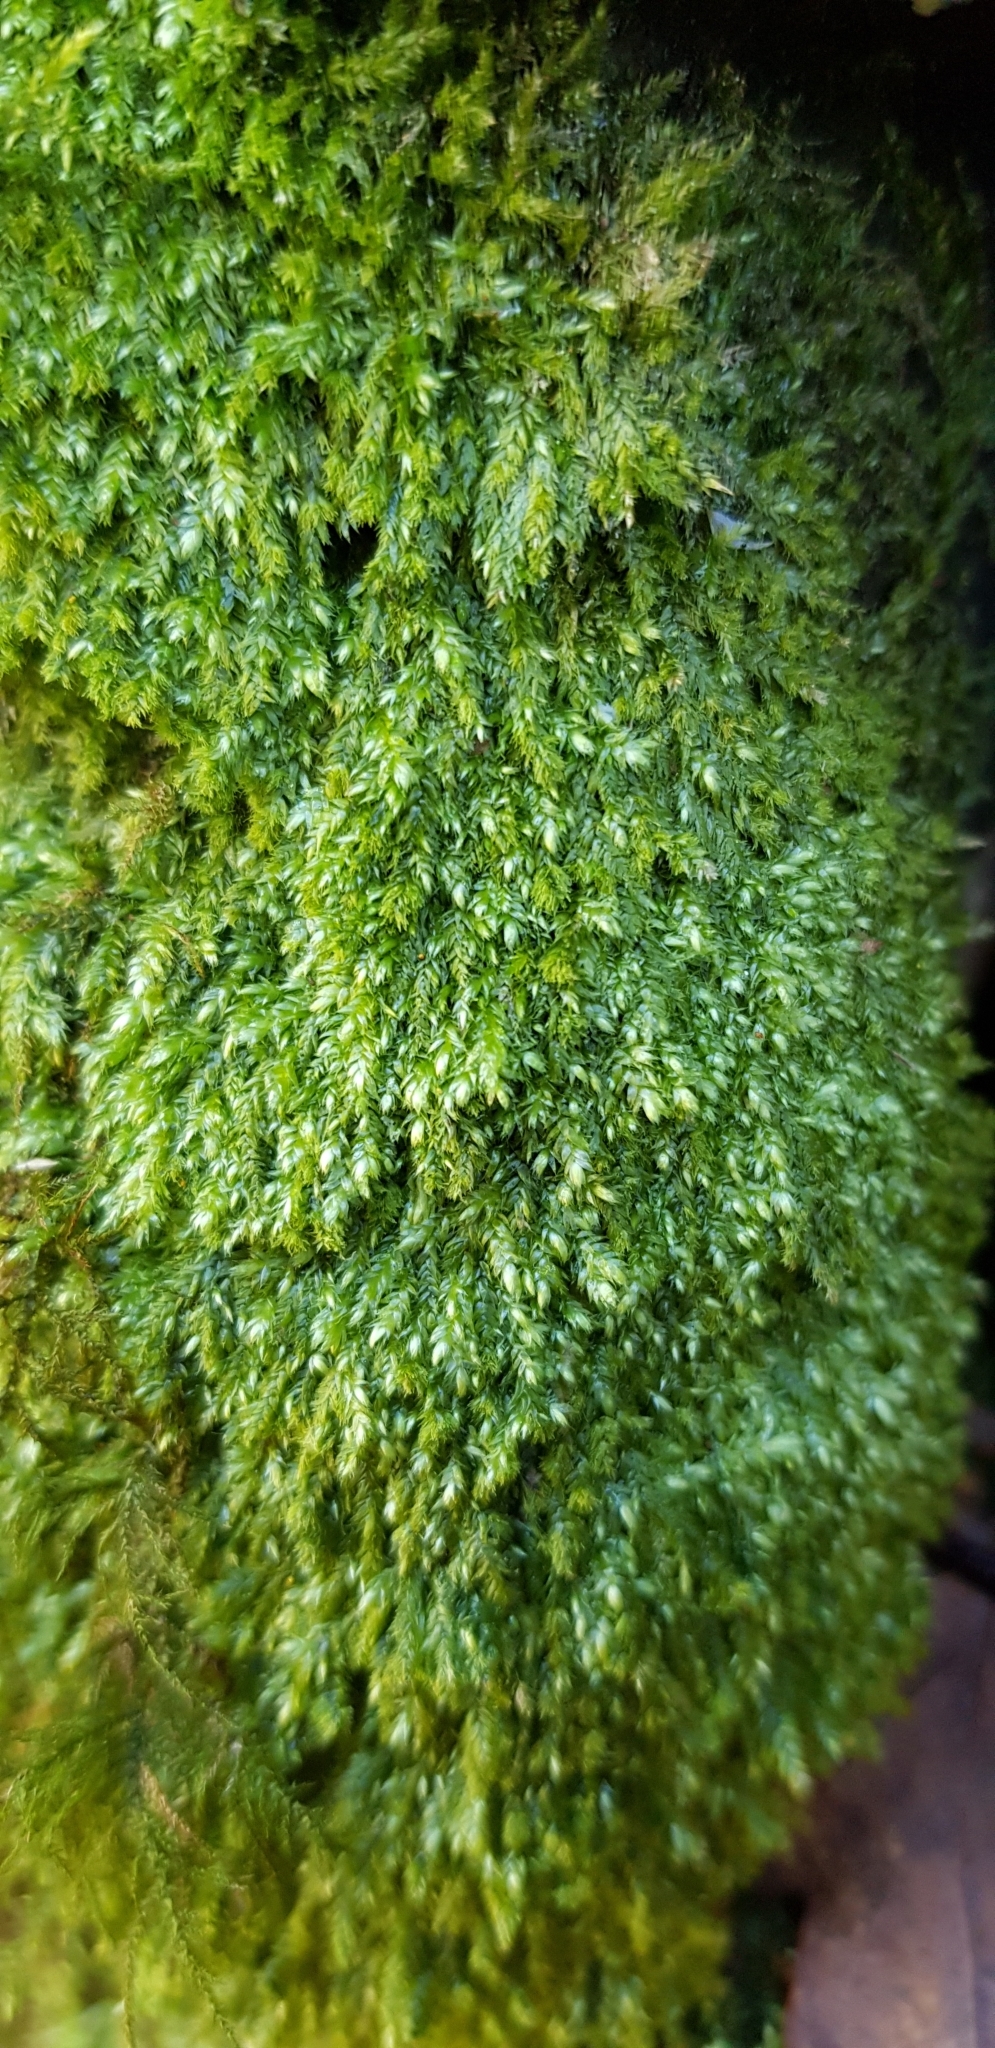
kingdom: Plantae
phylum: Bryophyta
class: Bryopsida
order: Hypnales
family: Plagiotheciaceae
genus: Pseudotaxiphyllum
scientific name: Pseudotaxiphyllum elegans
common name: Elegant silk moss
